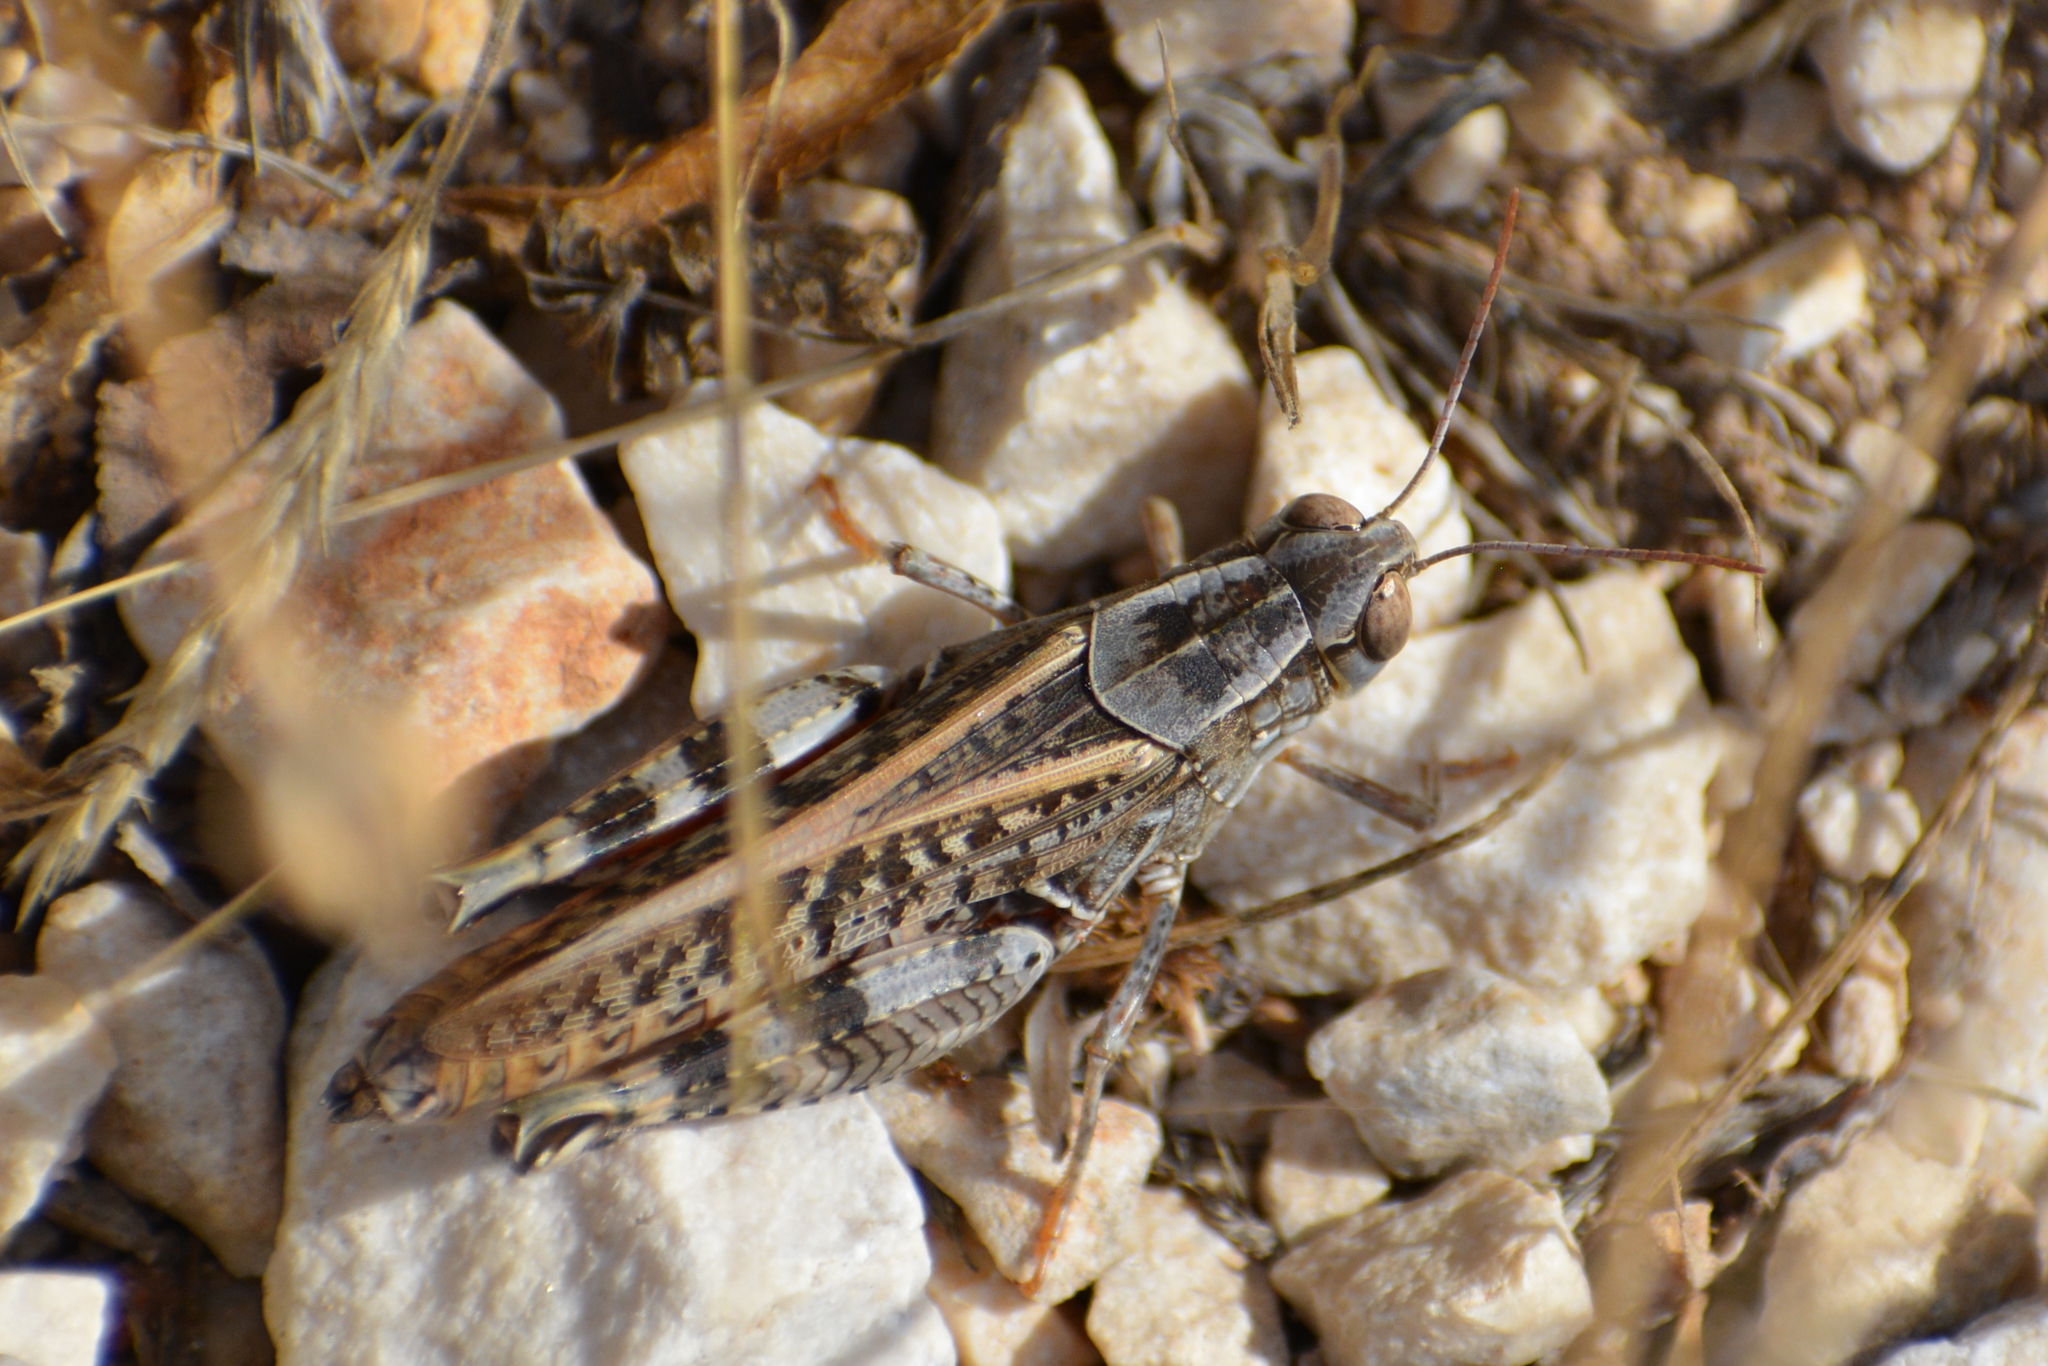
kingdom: Animalia
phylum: Arthropoda
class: Insecta
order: Orthoptera
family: Acrididae
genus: Calliptamus
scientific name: Calliptamus italicus
